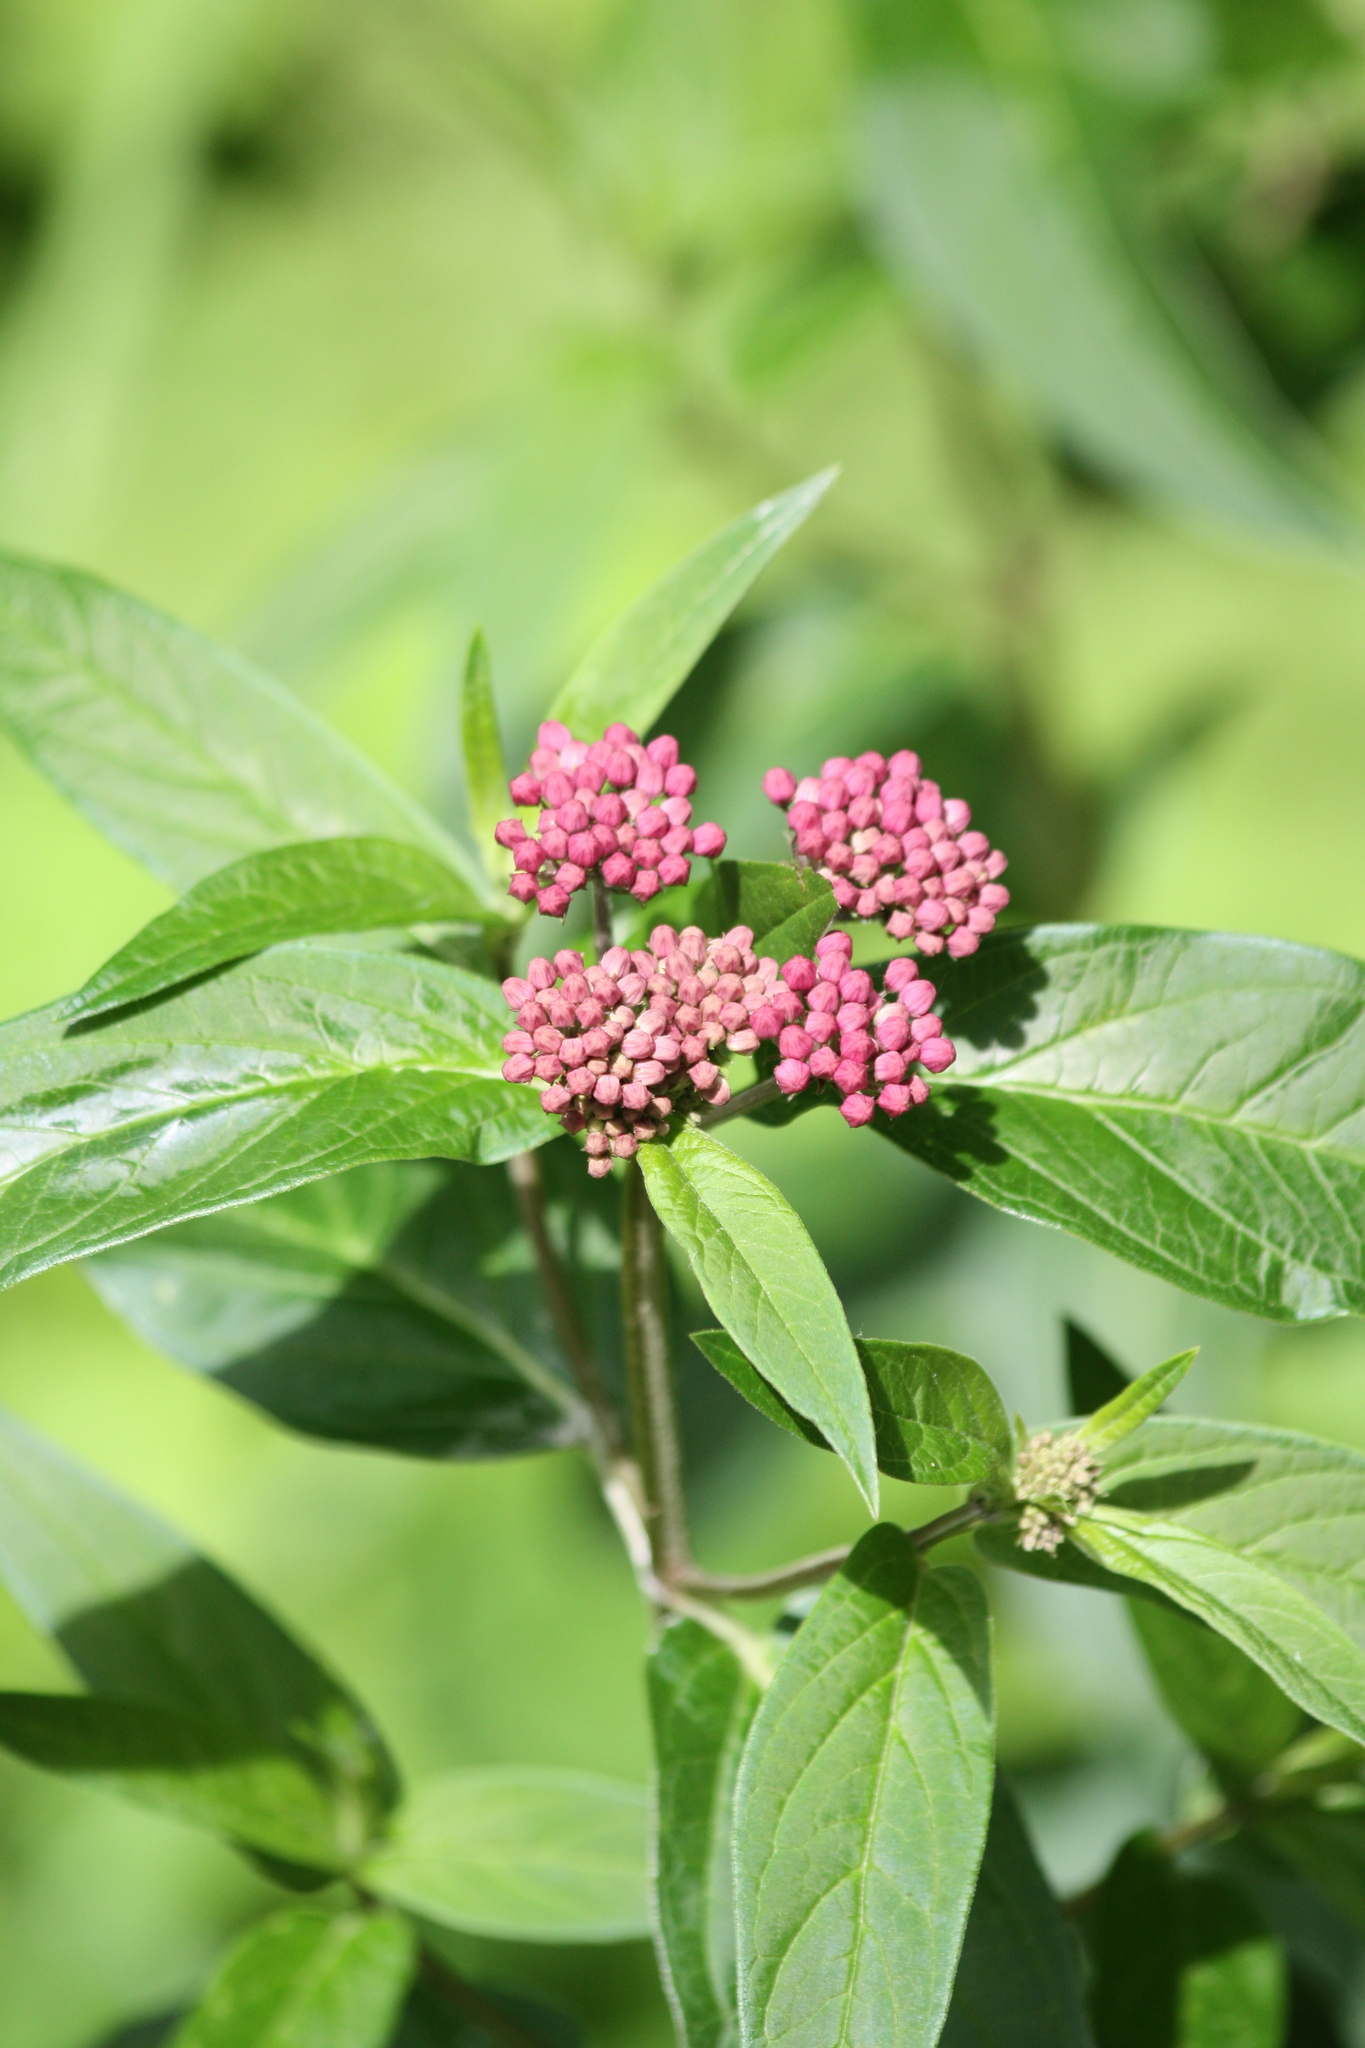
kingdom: Plantae
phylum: Tracheophyta
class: Magnoliopsida
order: Gentianales
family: Apocynaceae
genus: Asclepias
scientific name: Asclepias incarnata
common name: Swamp milkweed
